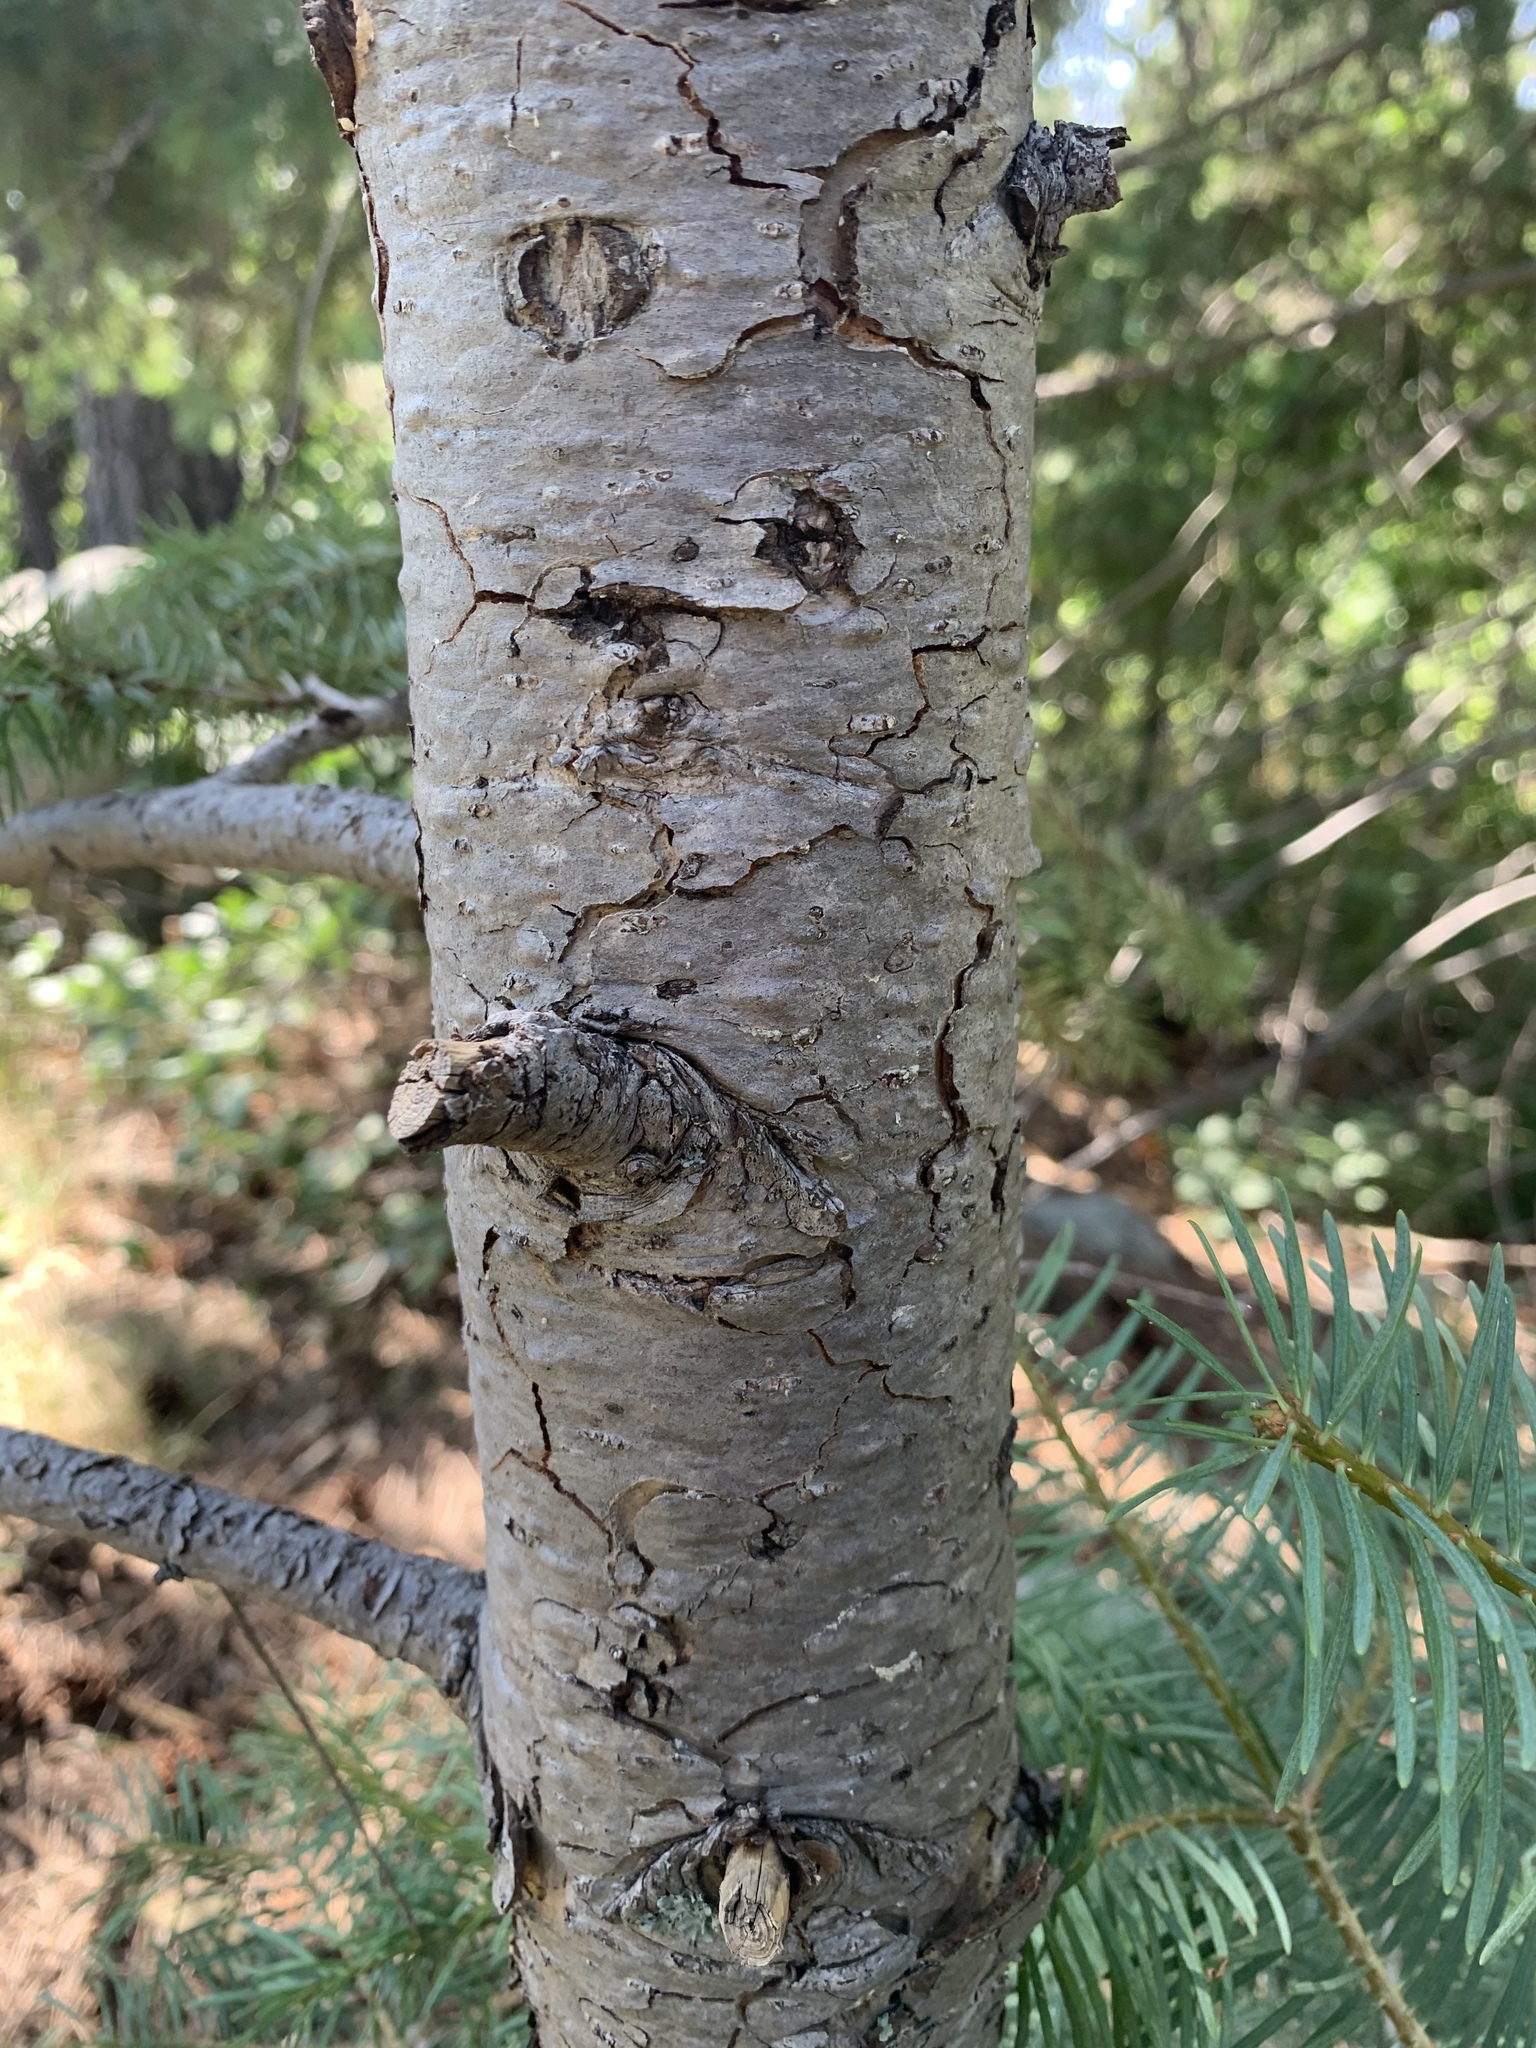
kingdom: Plantae
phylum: Tracheophyta
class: Pinopsida
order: Pinales
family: Pinaceae
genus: Abies
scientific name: Abies concolor
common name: Colorado fir
